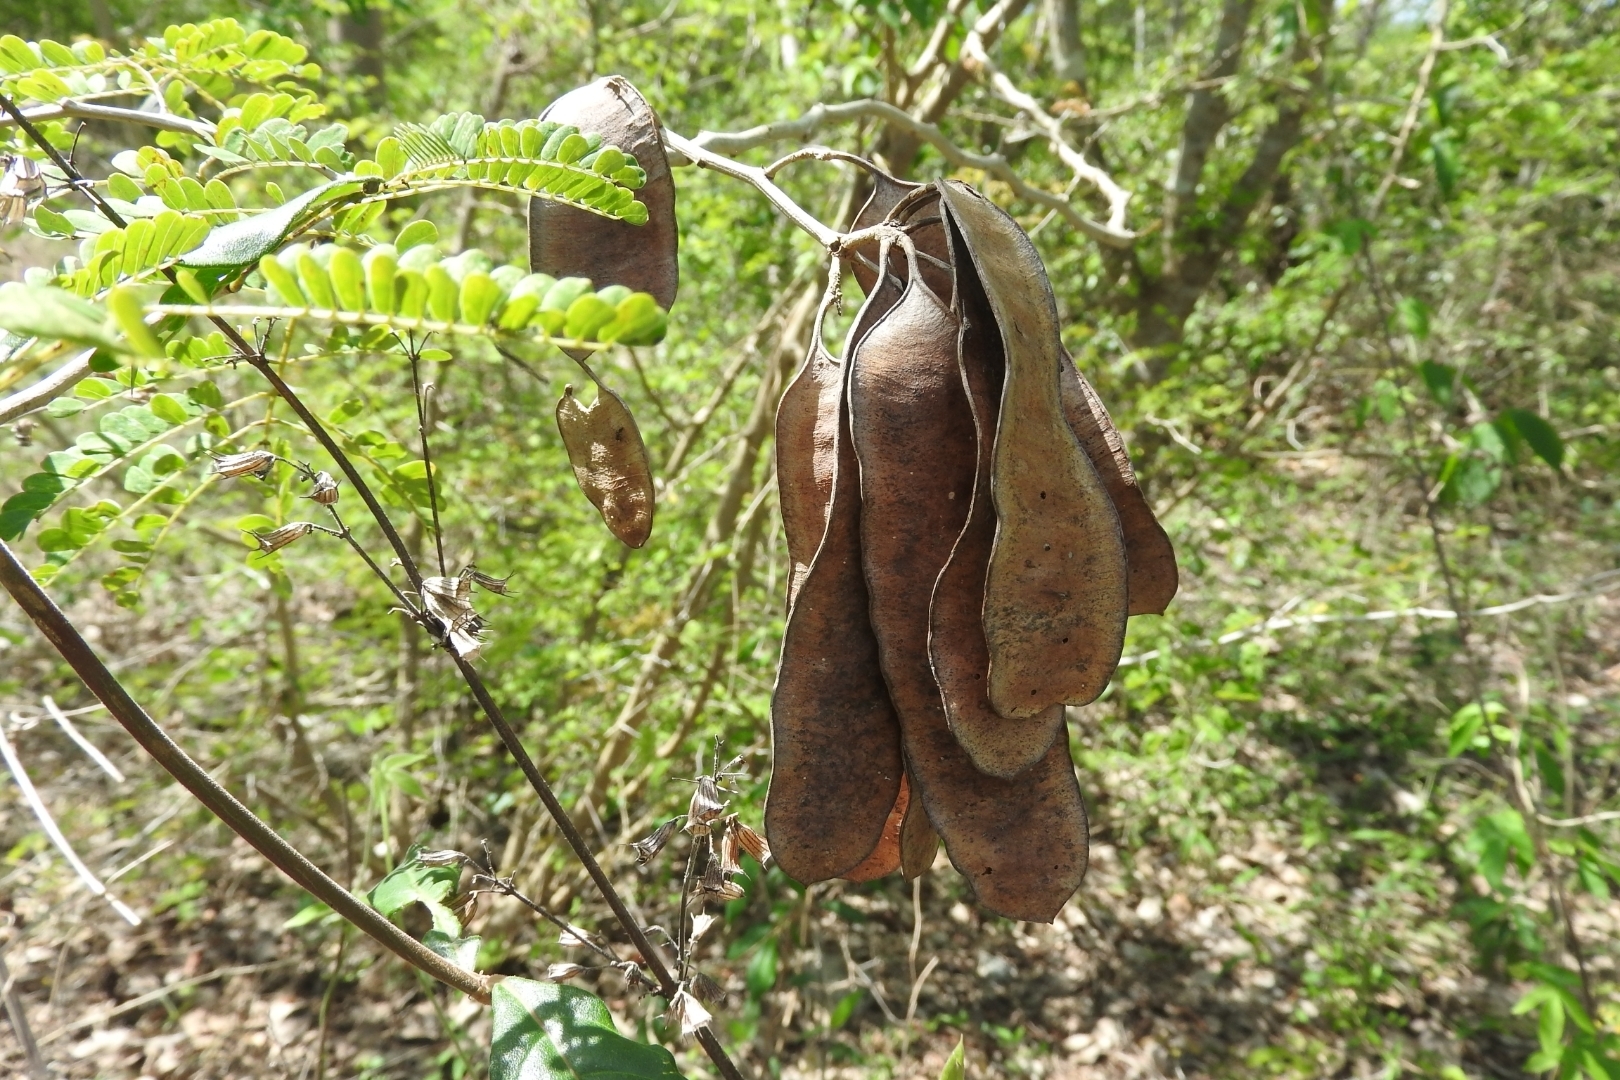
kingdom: Plantae
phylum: Tracheophyta
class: Magnoliopsida
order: Fabales
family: Fabaceae
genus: Senegalia
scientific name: Senegalia gaumeri
